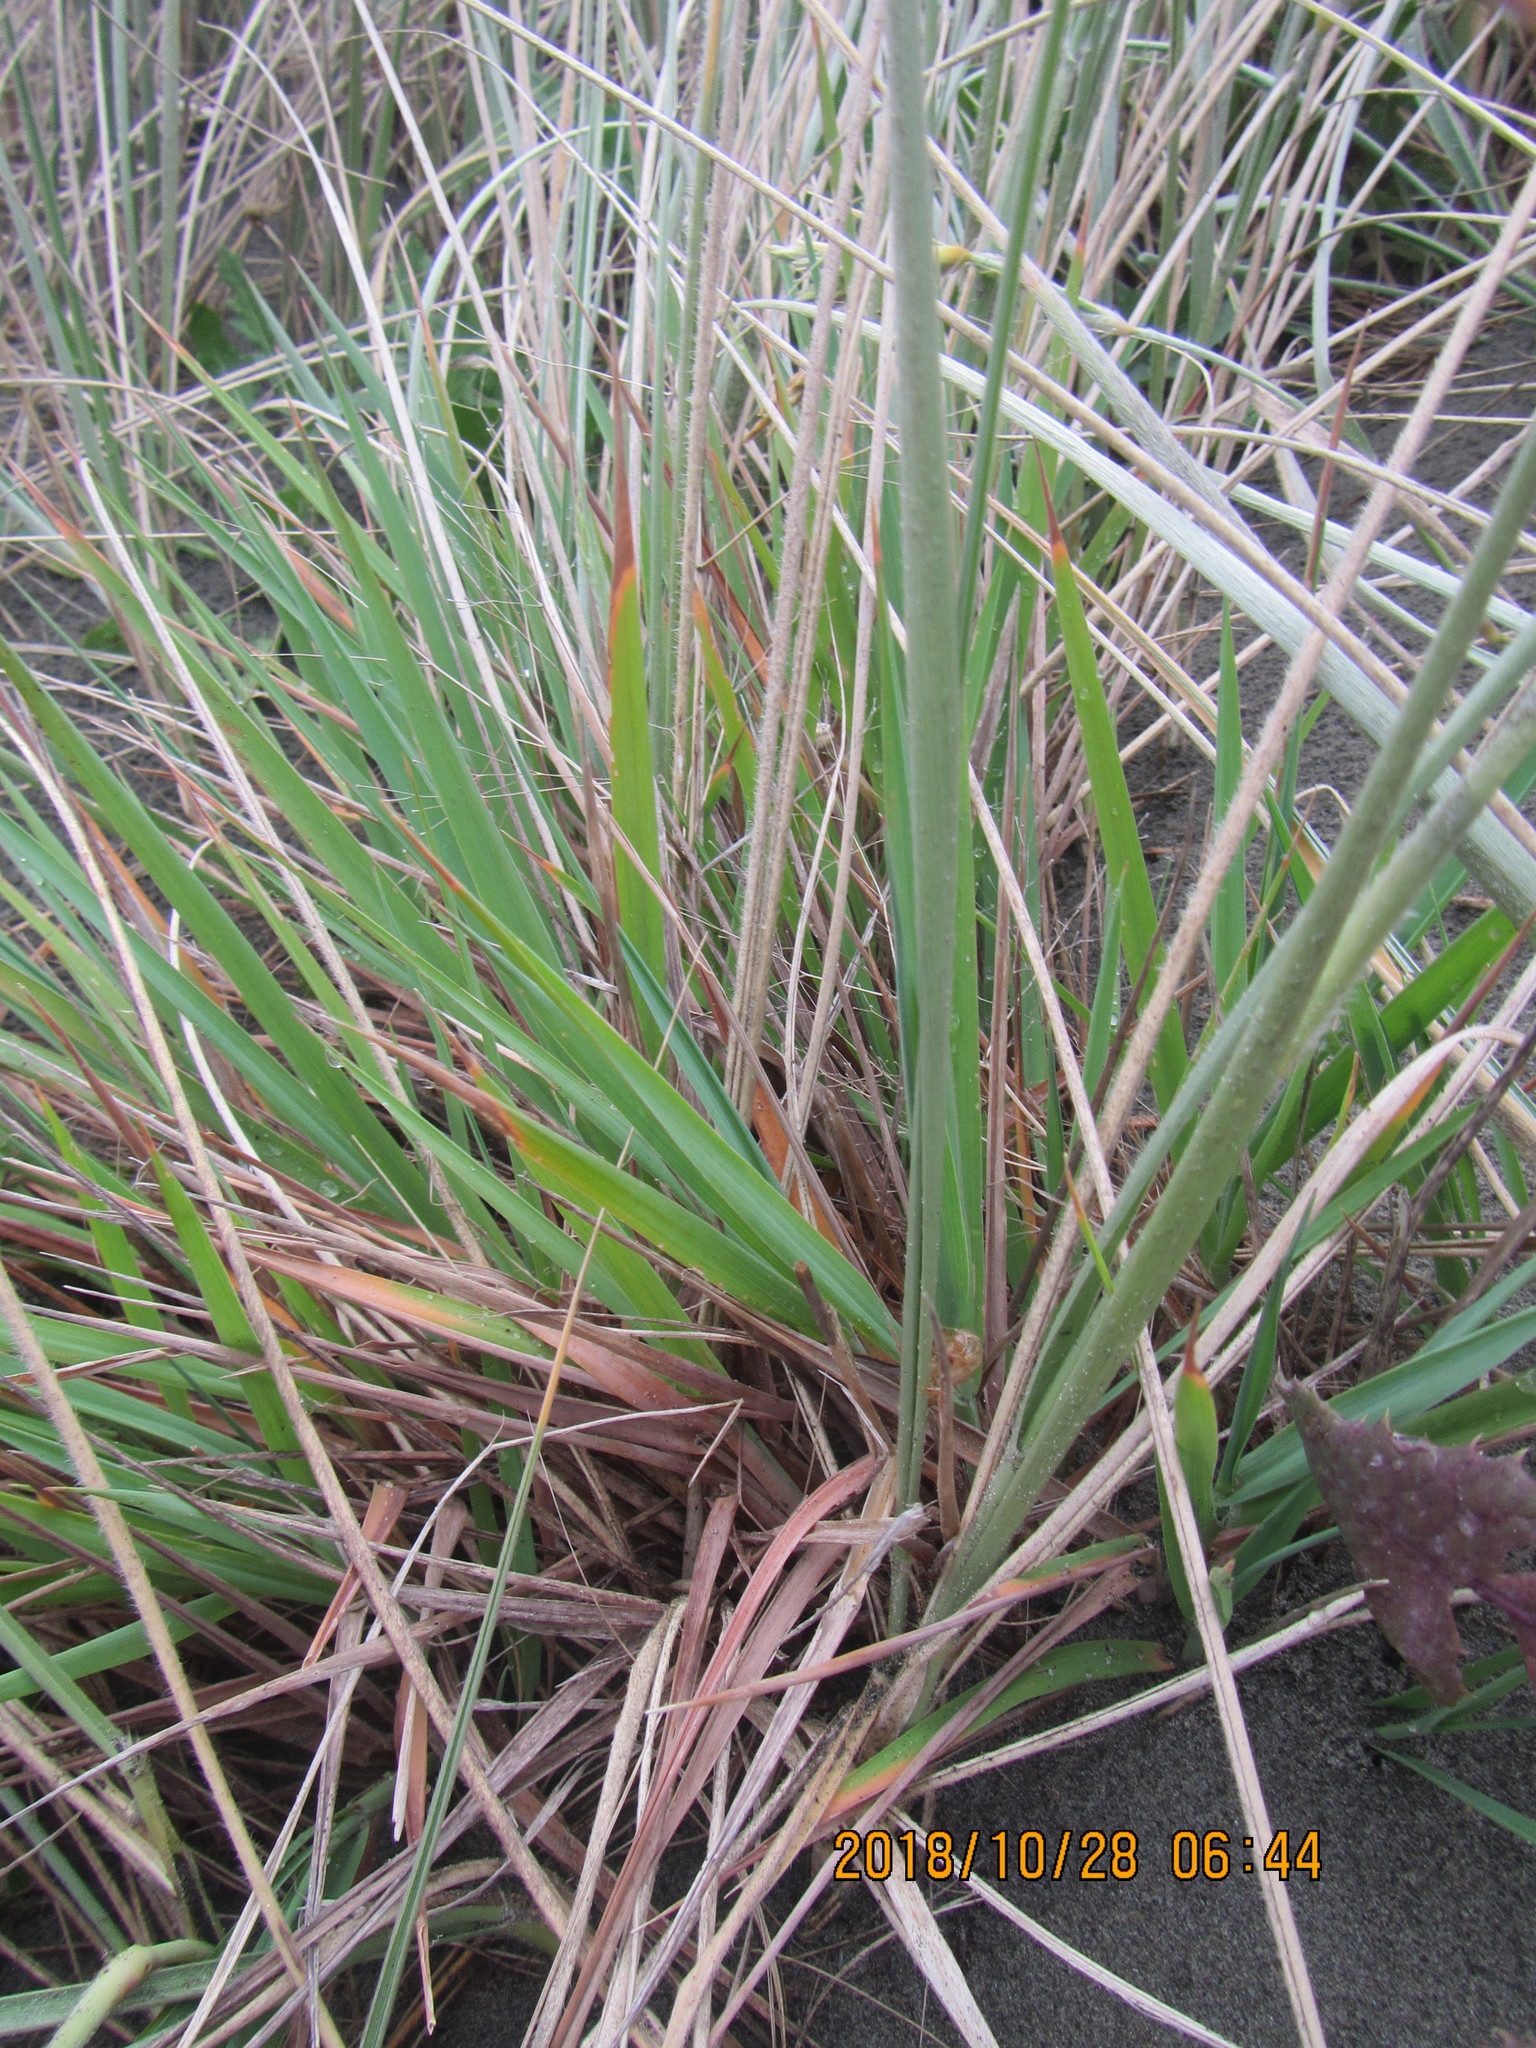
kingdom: Plantae
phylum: Tracheophyta
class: Liliopsida
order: Poales
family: Poaceae
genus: Lachnagrostis
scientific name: Lachnagrostis billardierei
